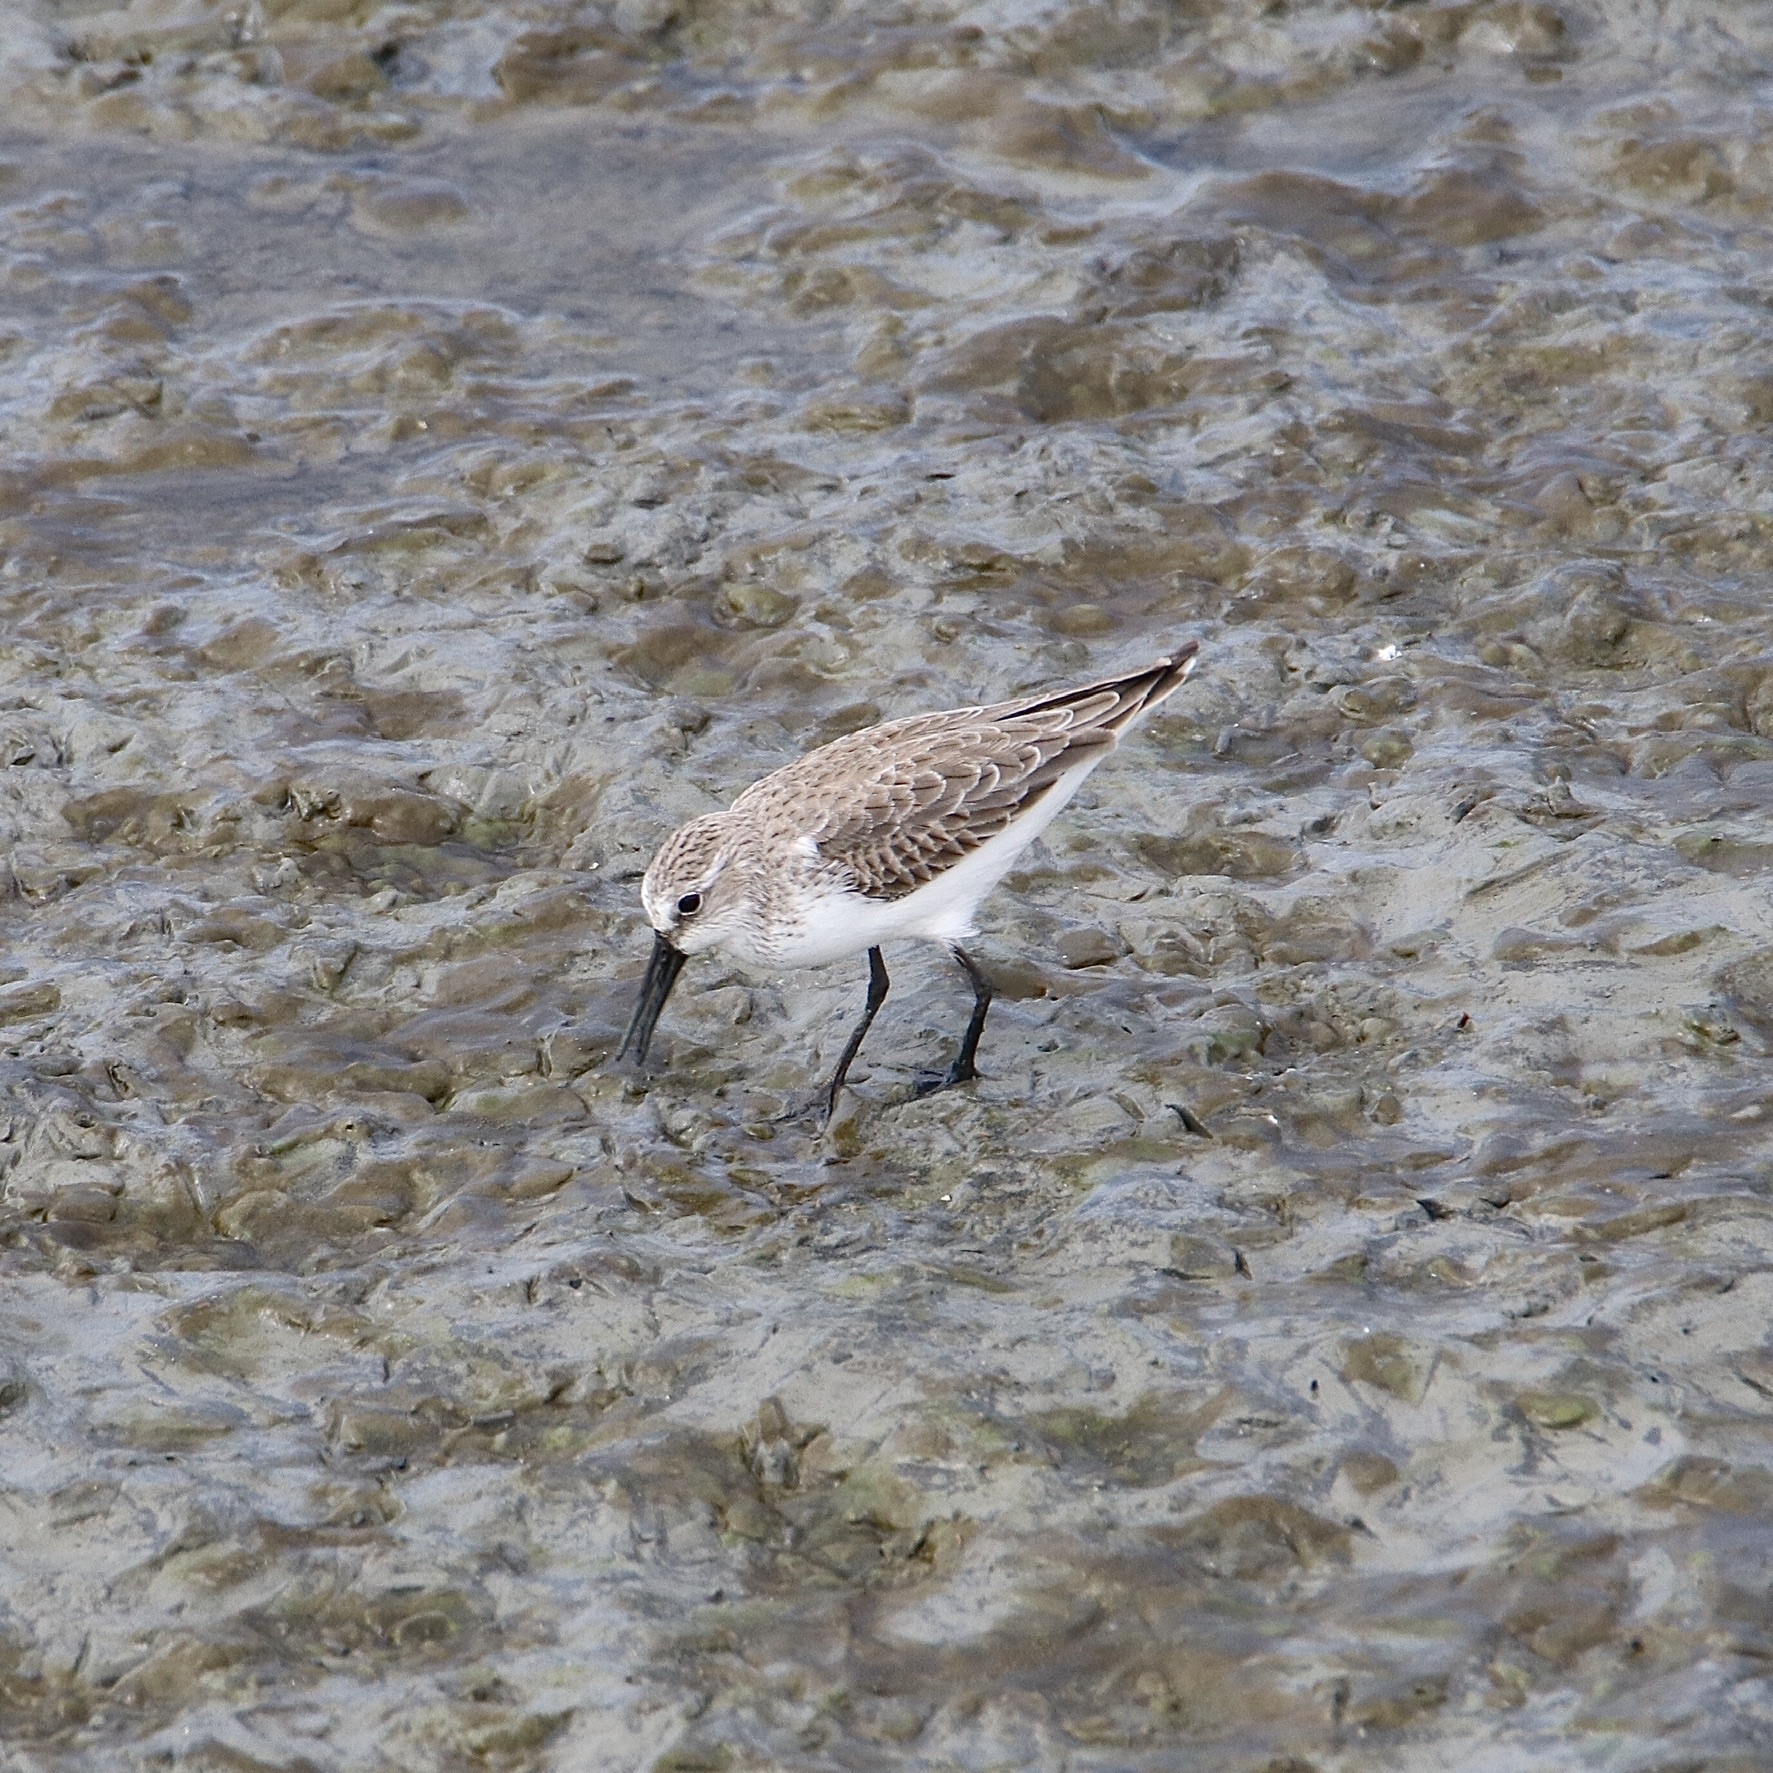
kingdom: Animalia
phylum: Chordata
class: Aves
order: Charadriiformes
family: Scolopacidae
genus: Calidris
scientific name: Calidris mauri
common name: Western sandpiper
